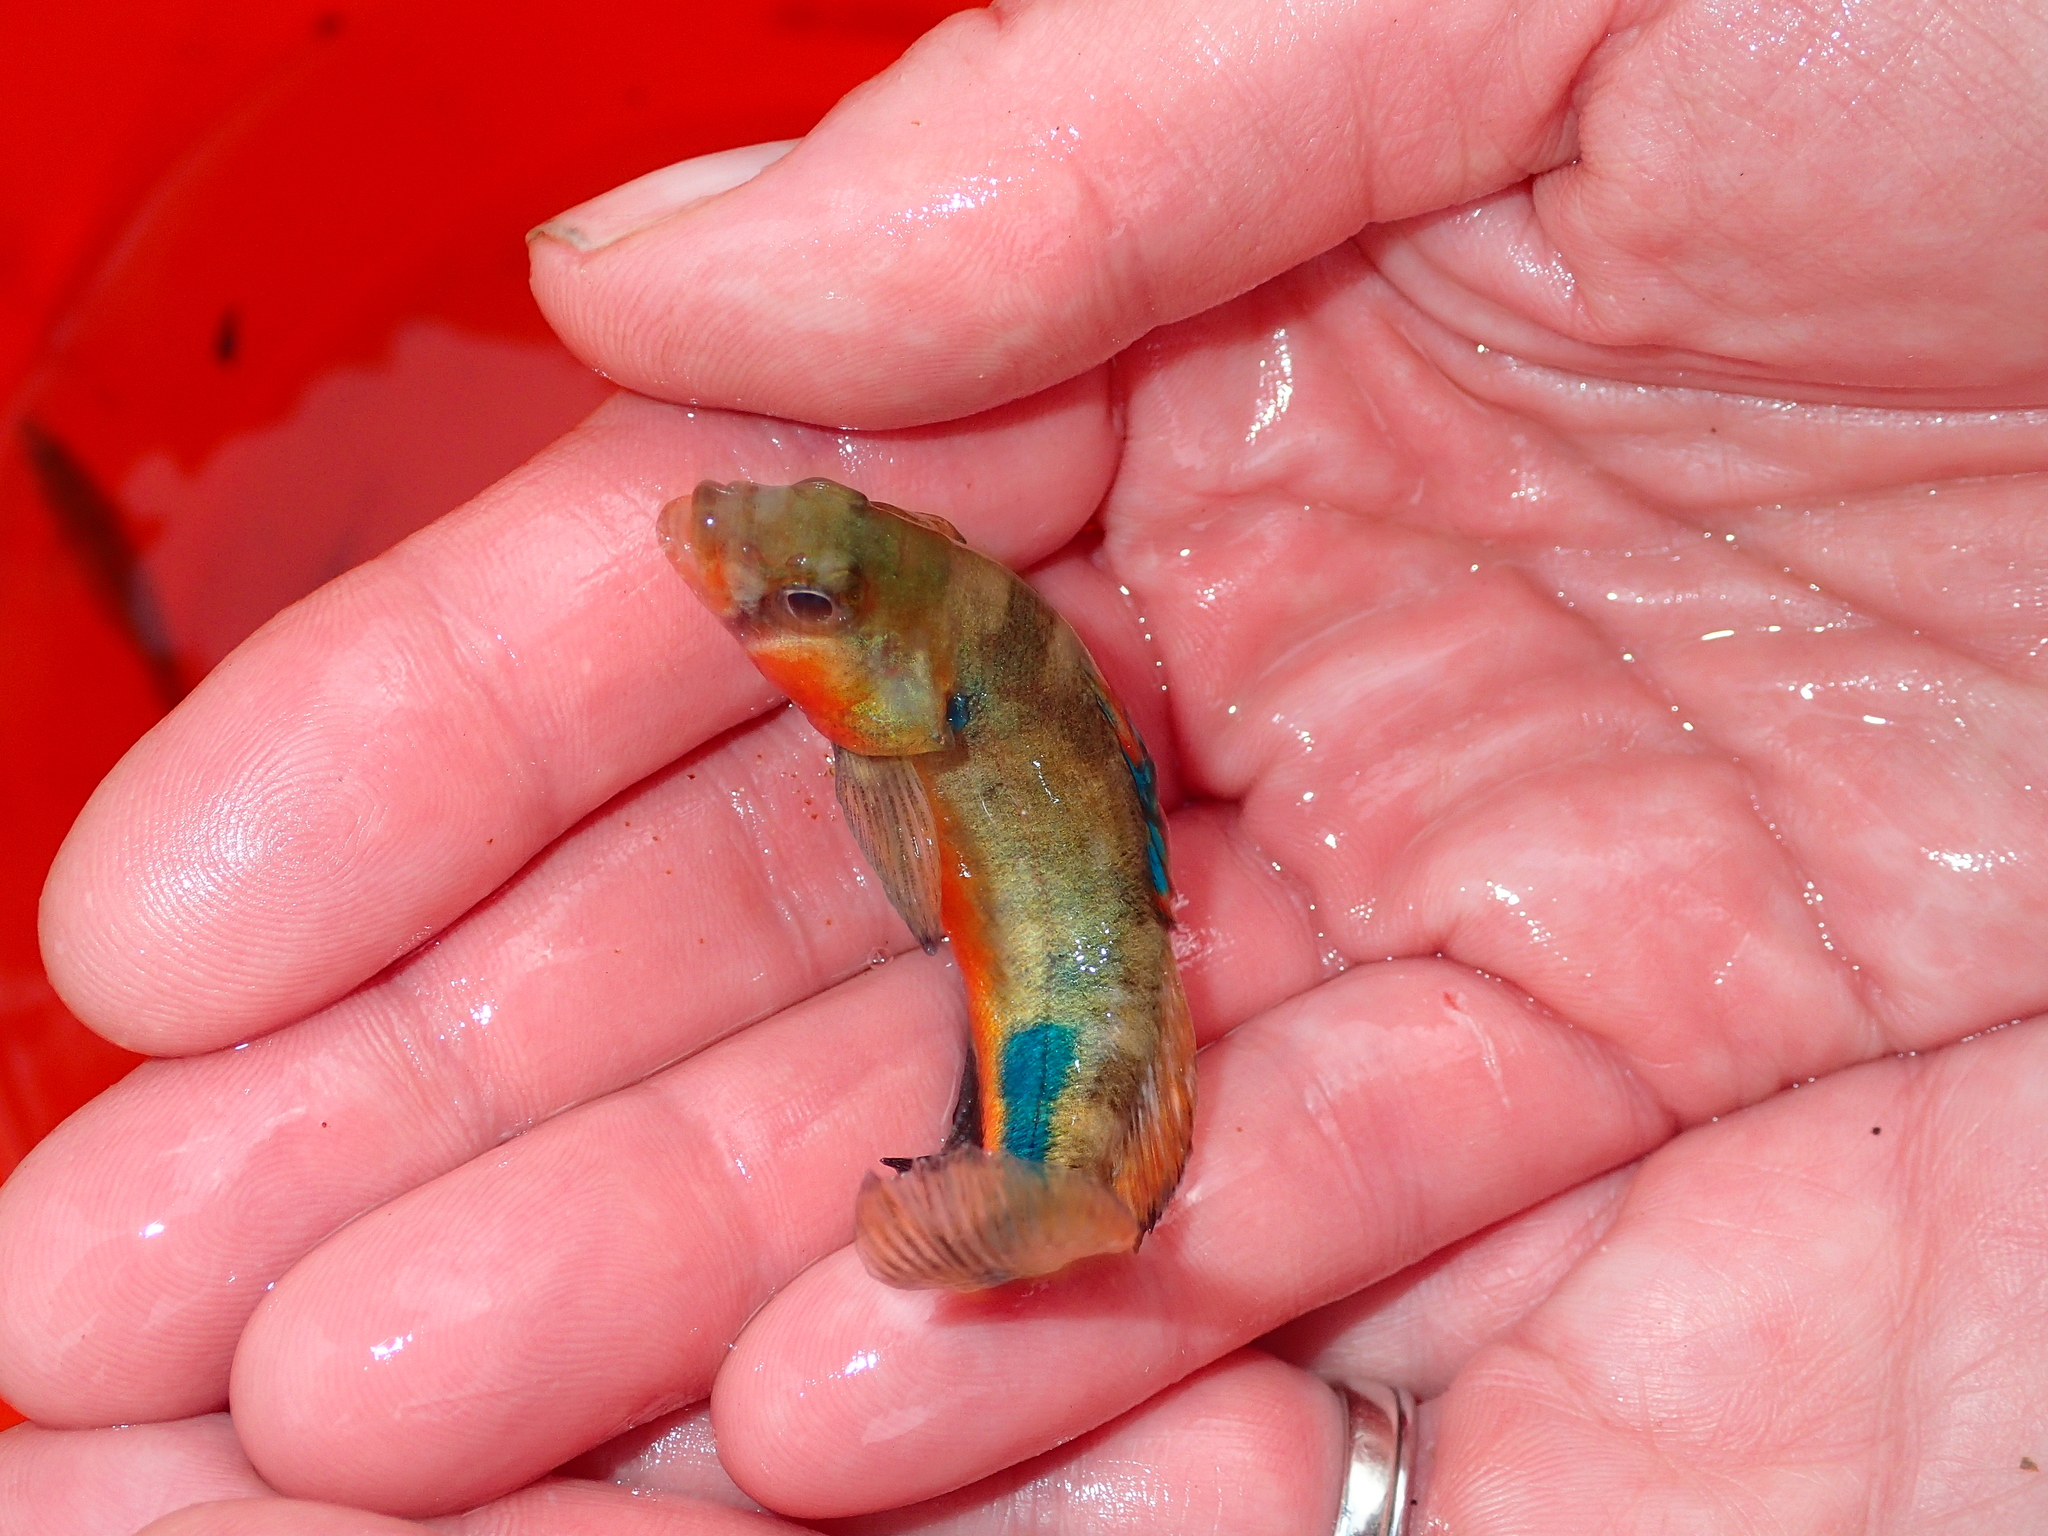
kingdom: Animalia
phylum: Chordata
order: Perciformes
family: Percidae
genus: Etheostoma
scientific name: Etheostoma punctulatum
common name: Stippled darter
